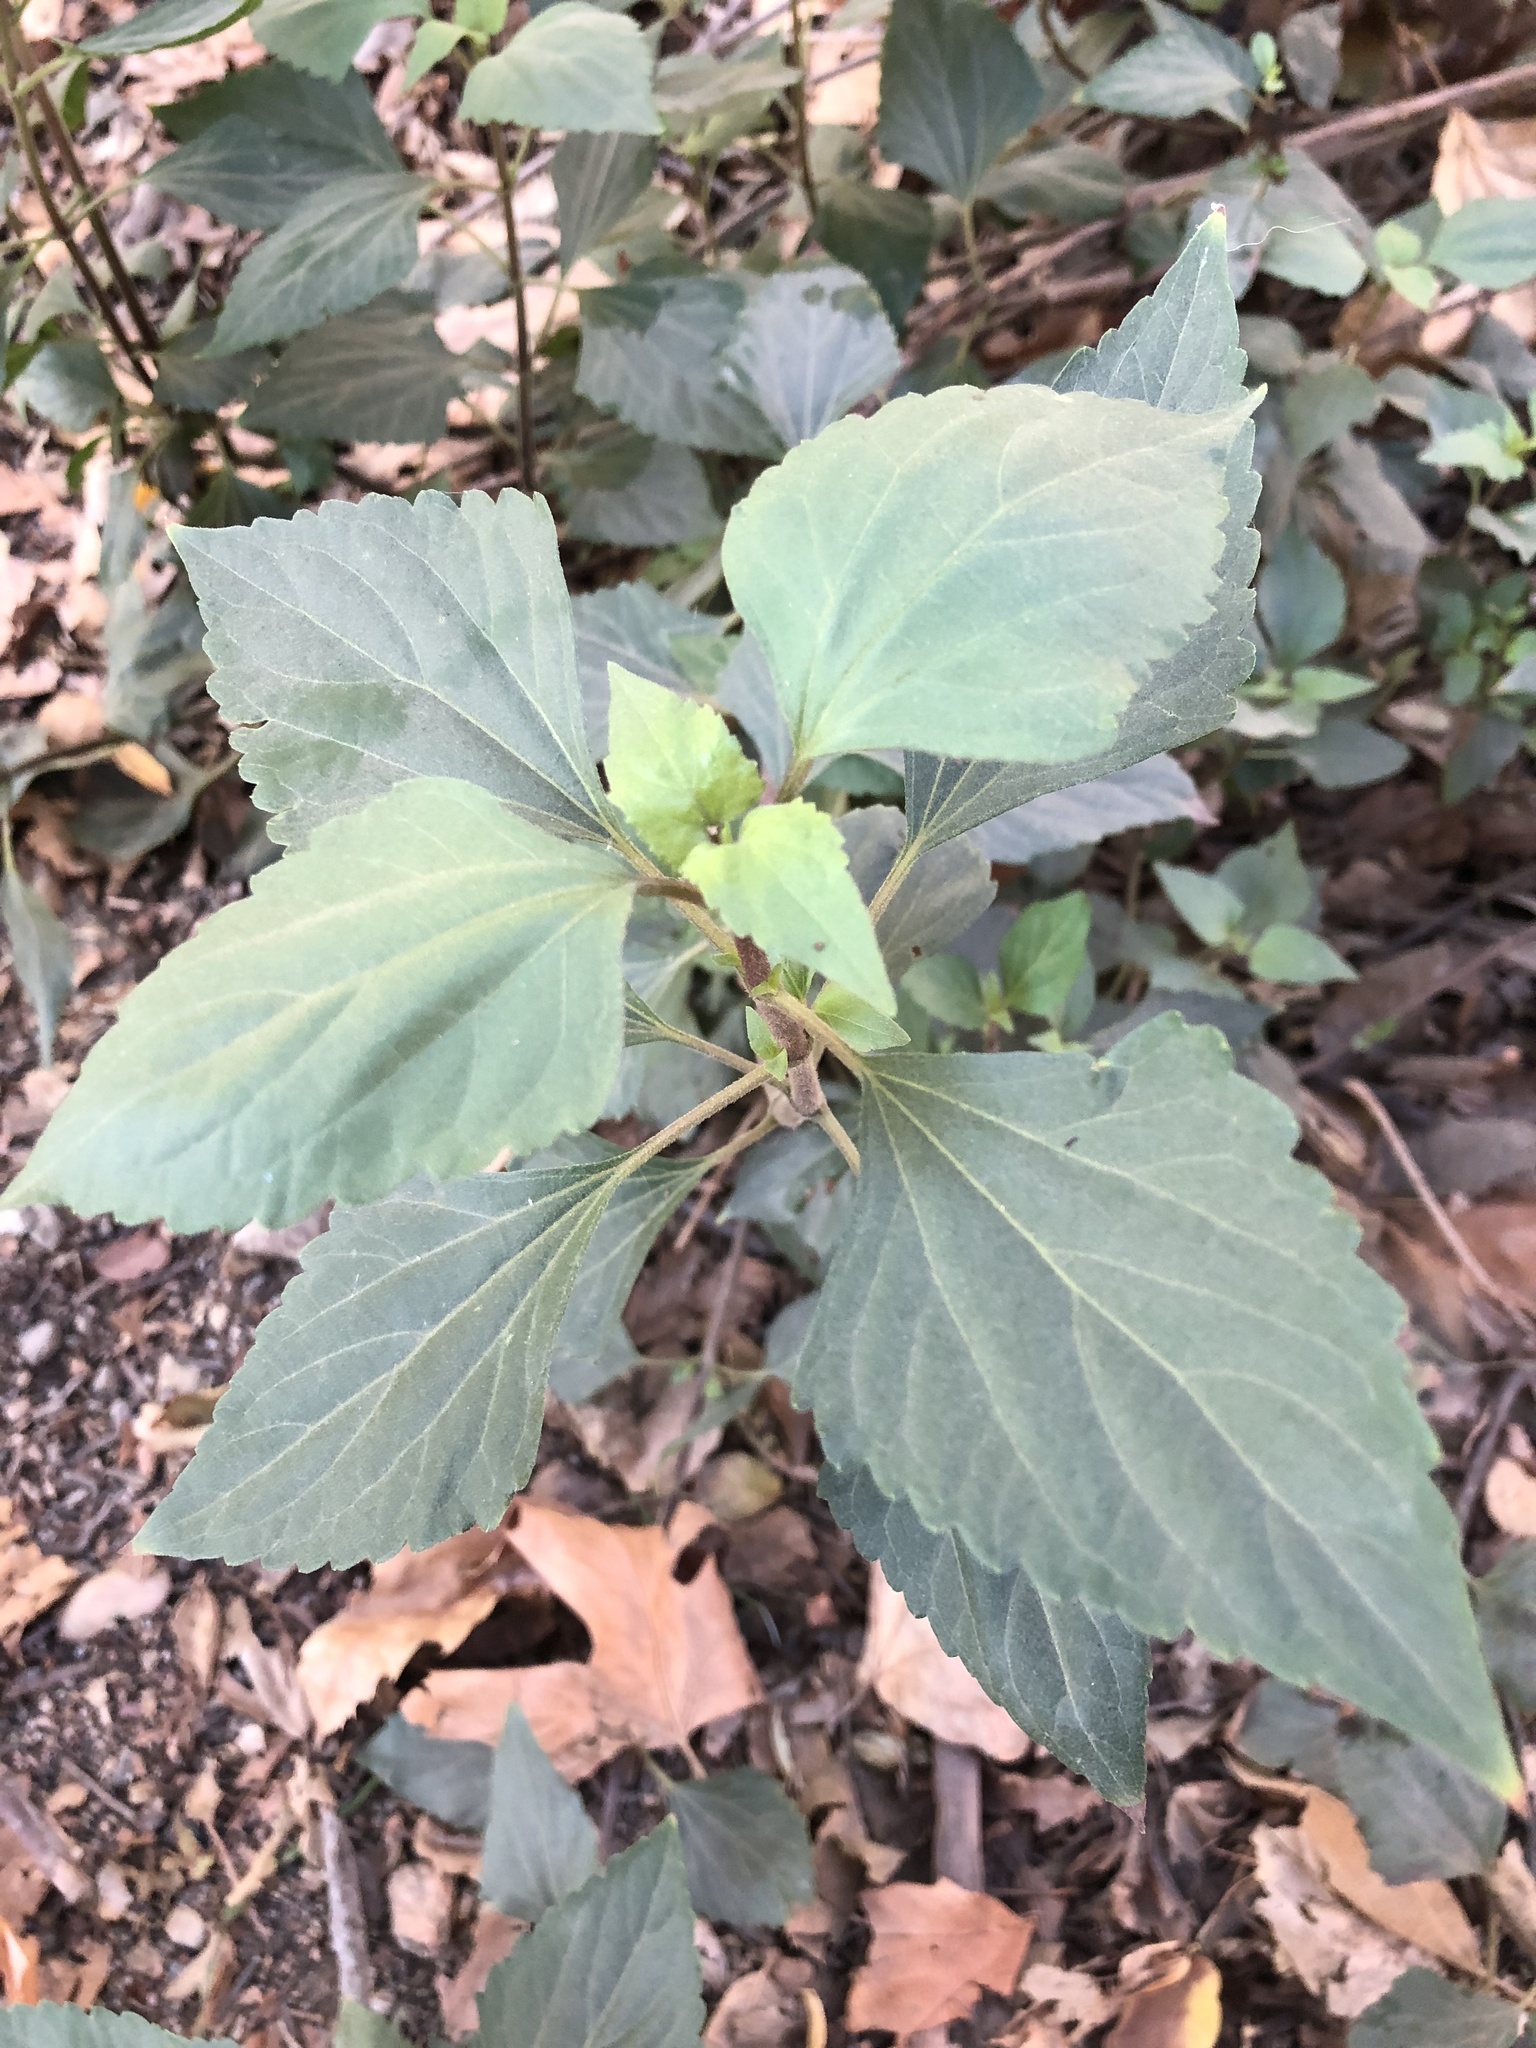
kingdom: Plantae
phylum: Tracheophyta
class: Magnoliopsida
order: Asterales
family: Asteraceae
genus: Ageratina
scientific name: Ageratina adenophora
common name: Sticky snakeroot
